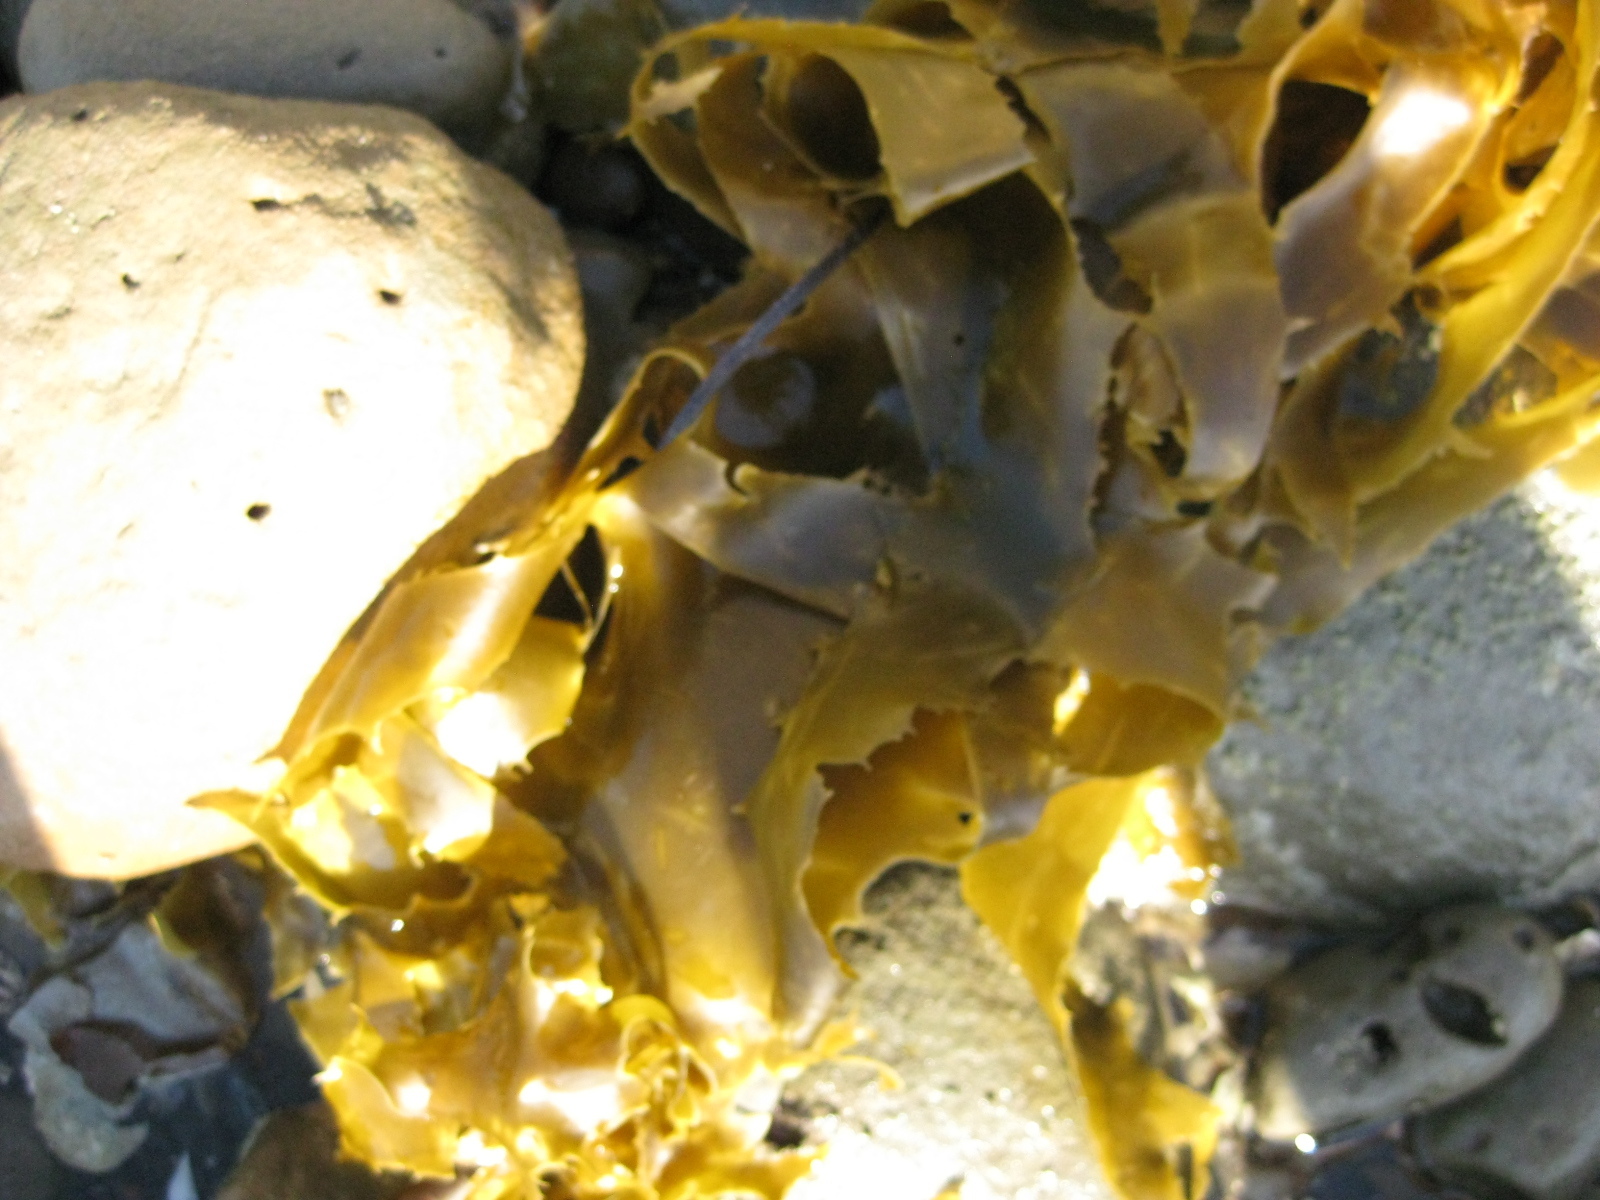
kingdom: Chromista
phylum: Ochrophyta
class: Phaeophyceae
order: Laminariales
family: Lessoniaceae
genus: Ecklonia
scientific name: Ecklonia radiata
